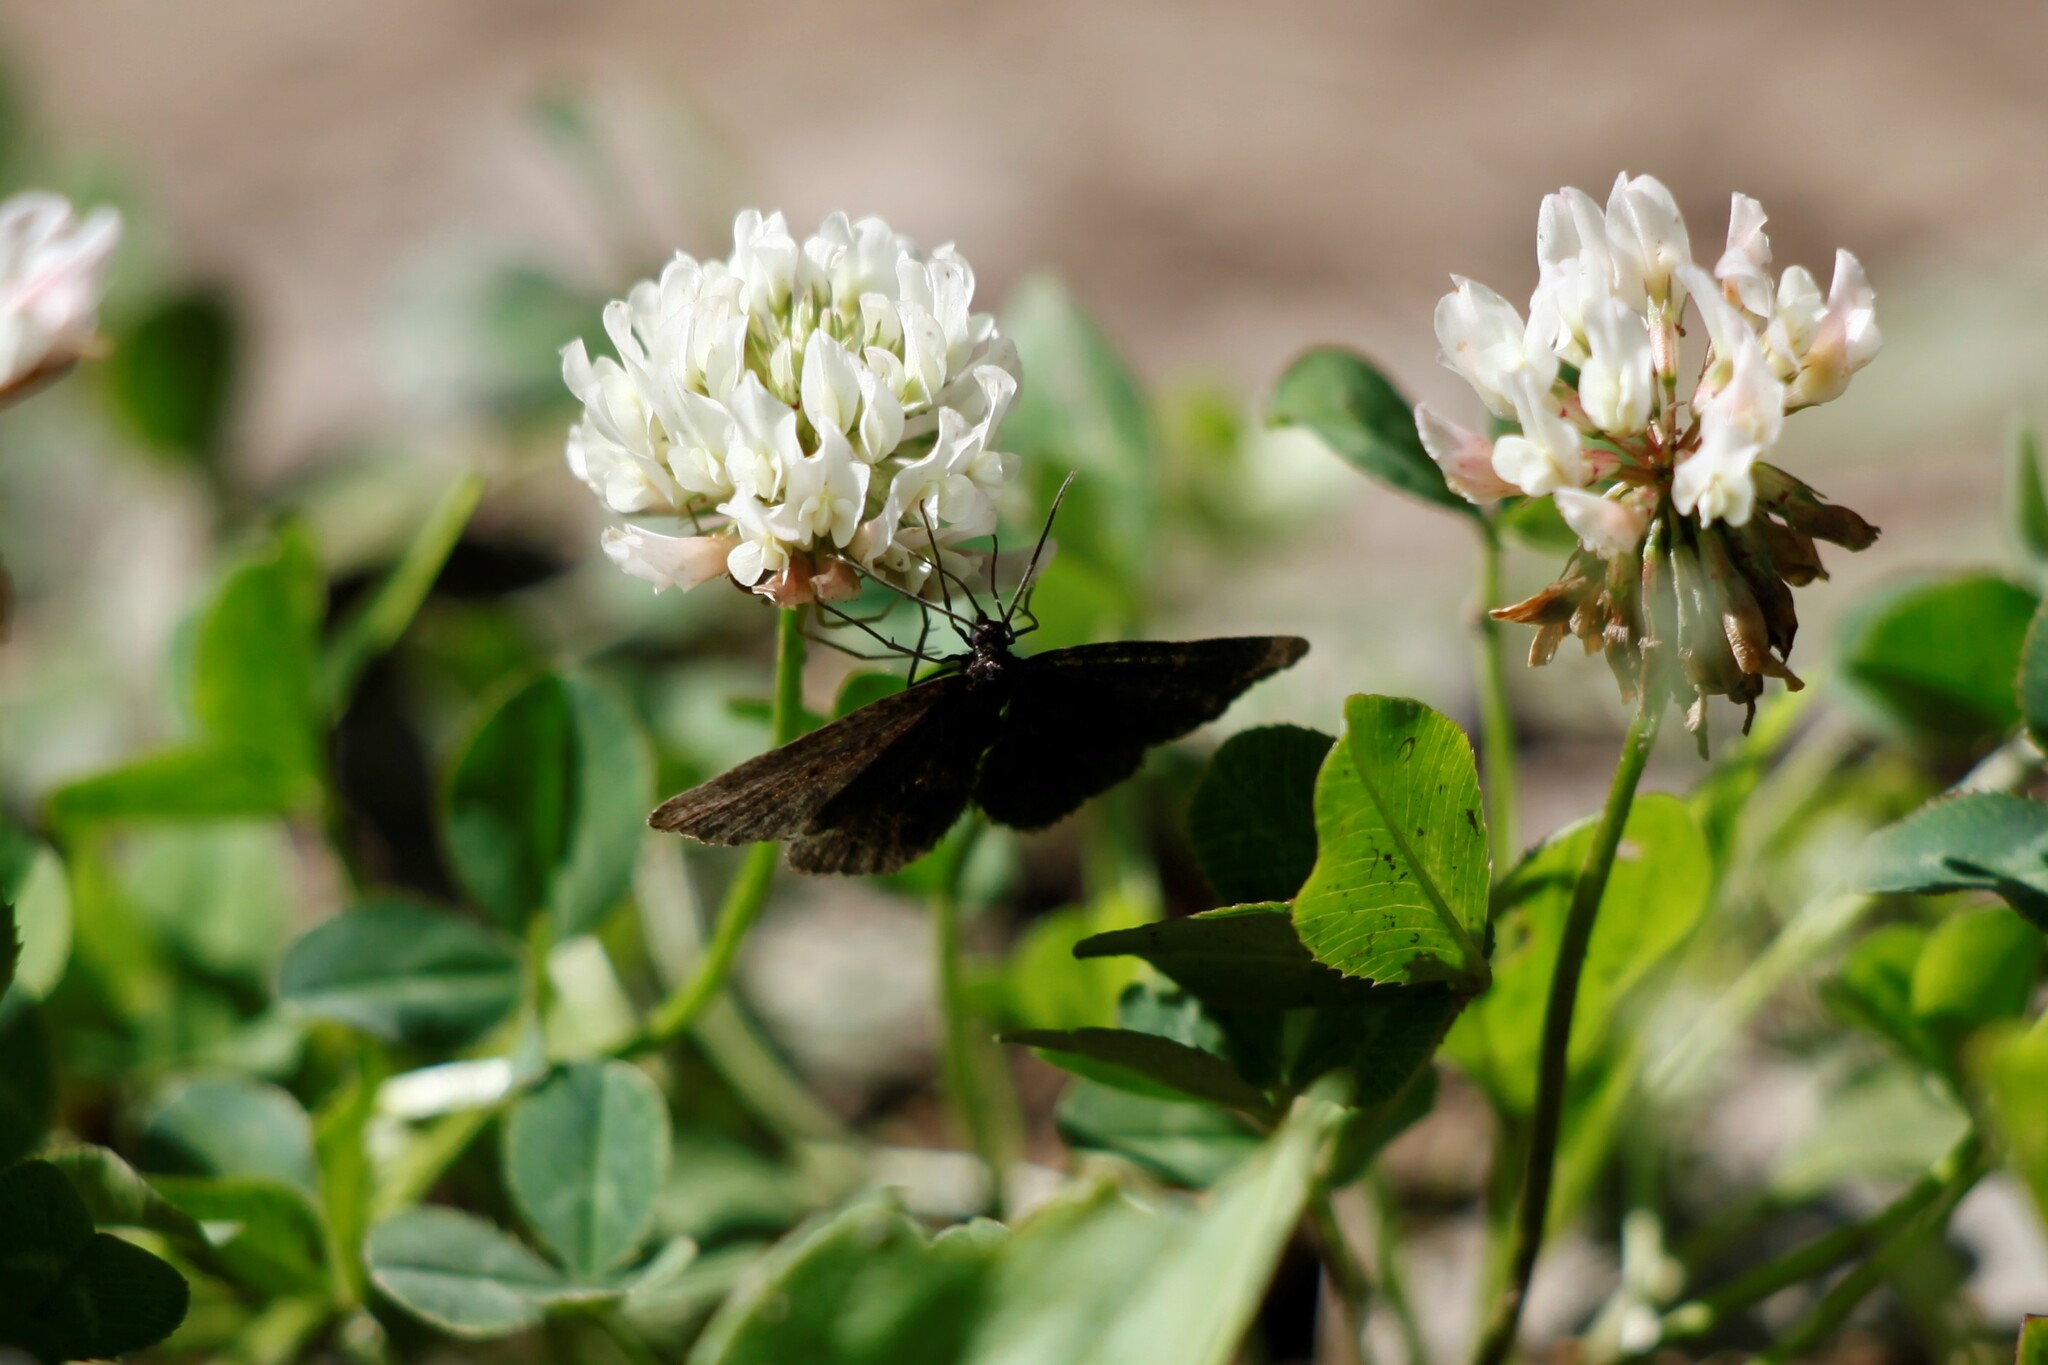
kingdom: Animalia
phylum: Arthropoda
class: Insecta
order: Lepidoptera
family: Geometridae
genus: Odezia
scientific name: Odezia atrata
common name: Chimney sweeper
